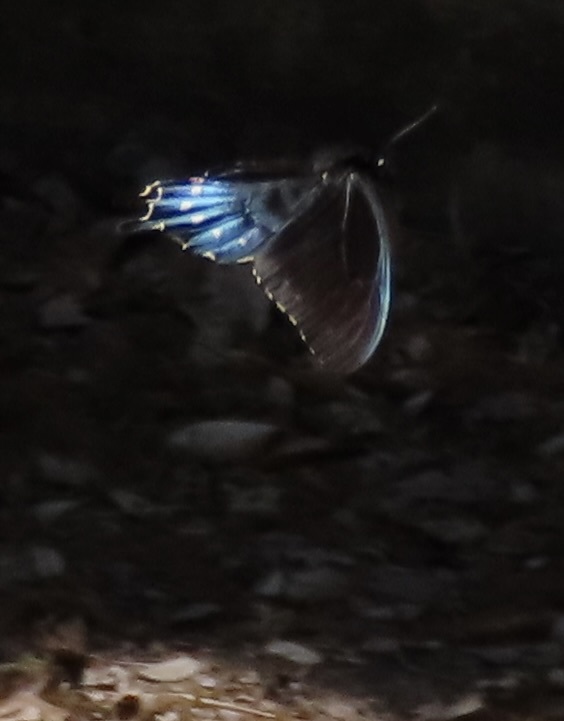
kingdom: Animalia
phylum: Arthropoda
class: Insecta
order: Lepidoptera
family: Papilionidae
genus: Battus
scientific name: Battus philenor
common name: Pipevine swallowtail
